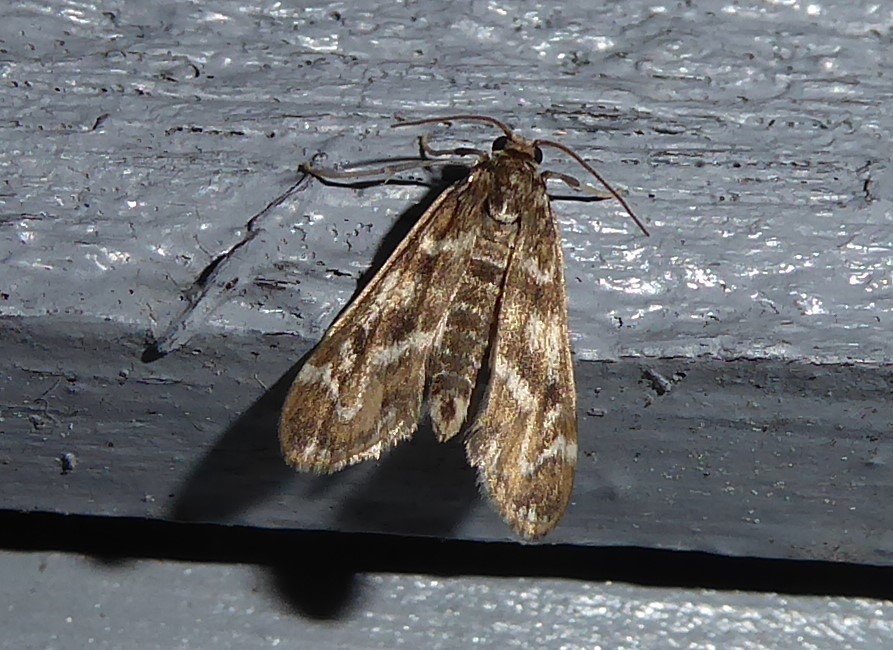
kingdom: Animalia
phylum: Arthropoda
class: Insecta
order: Lepidoptera
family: Crambidae
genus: Hygraula
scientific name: Hygraula nitens
